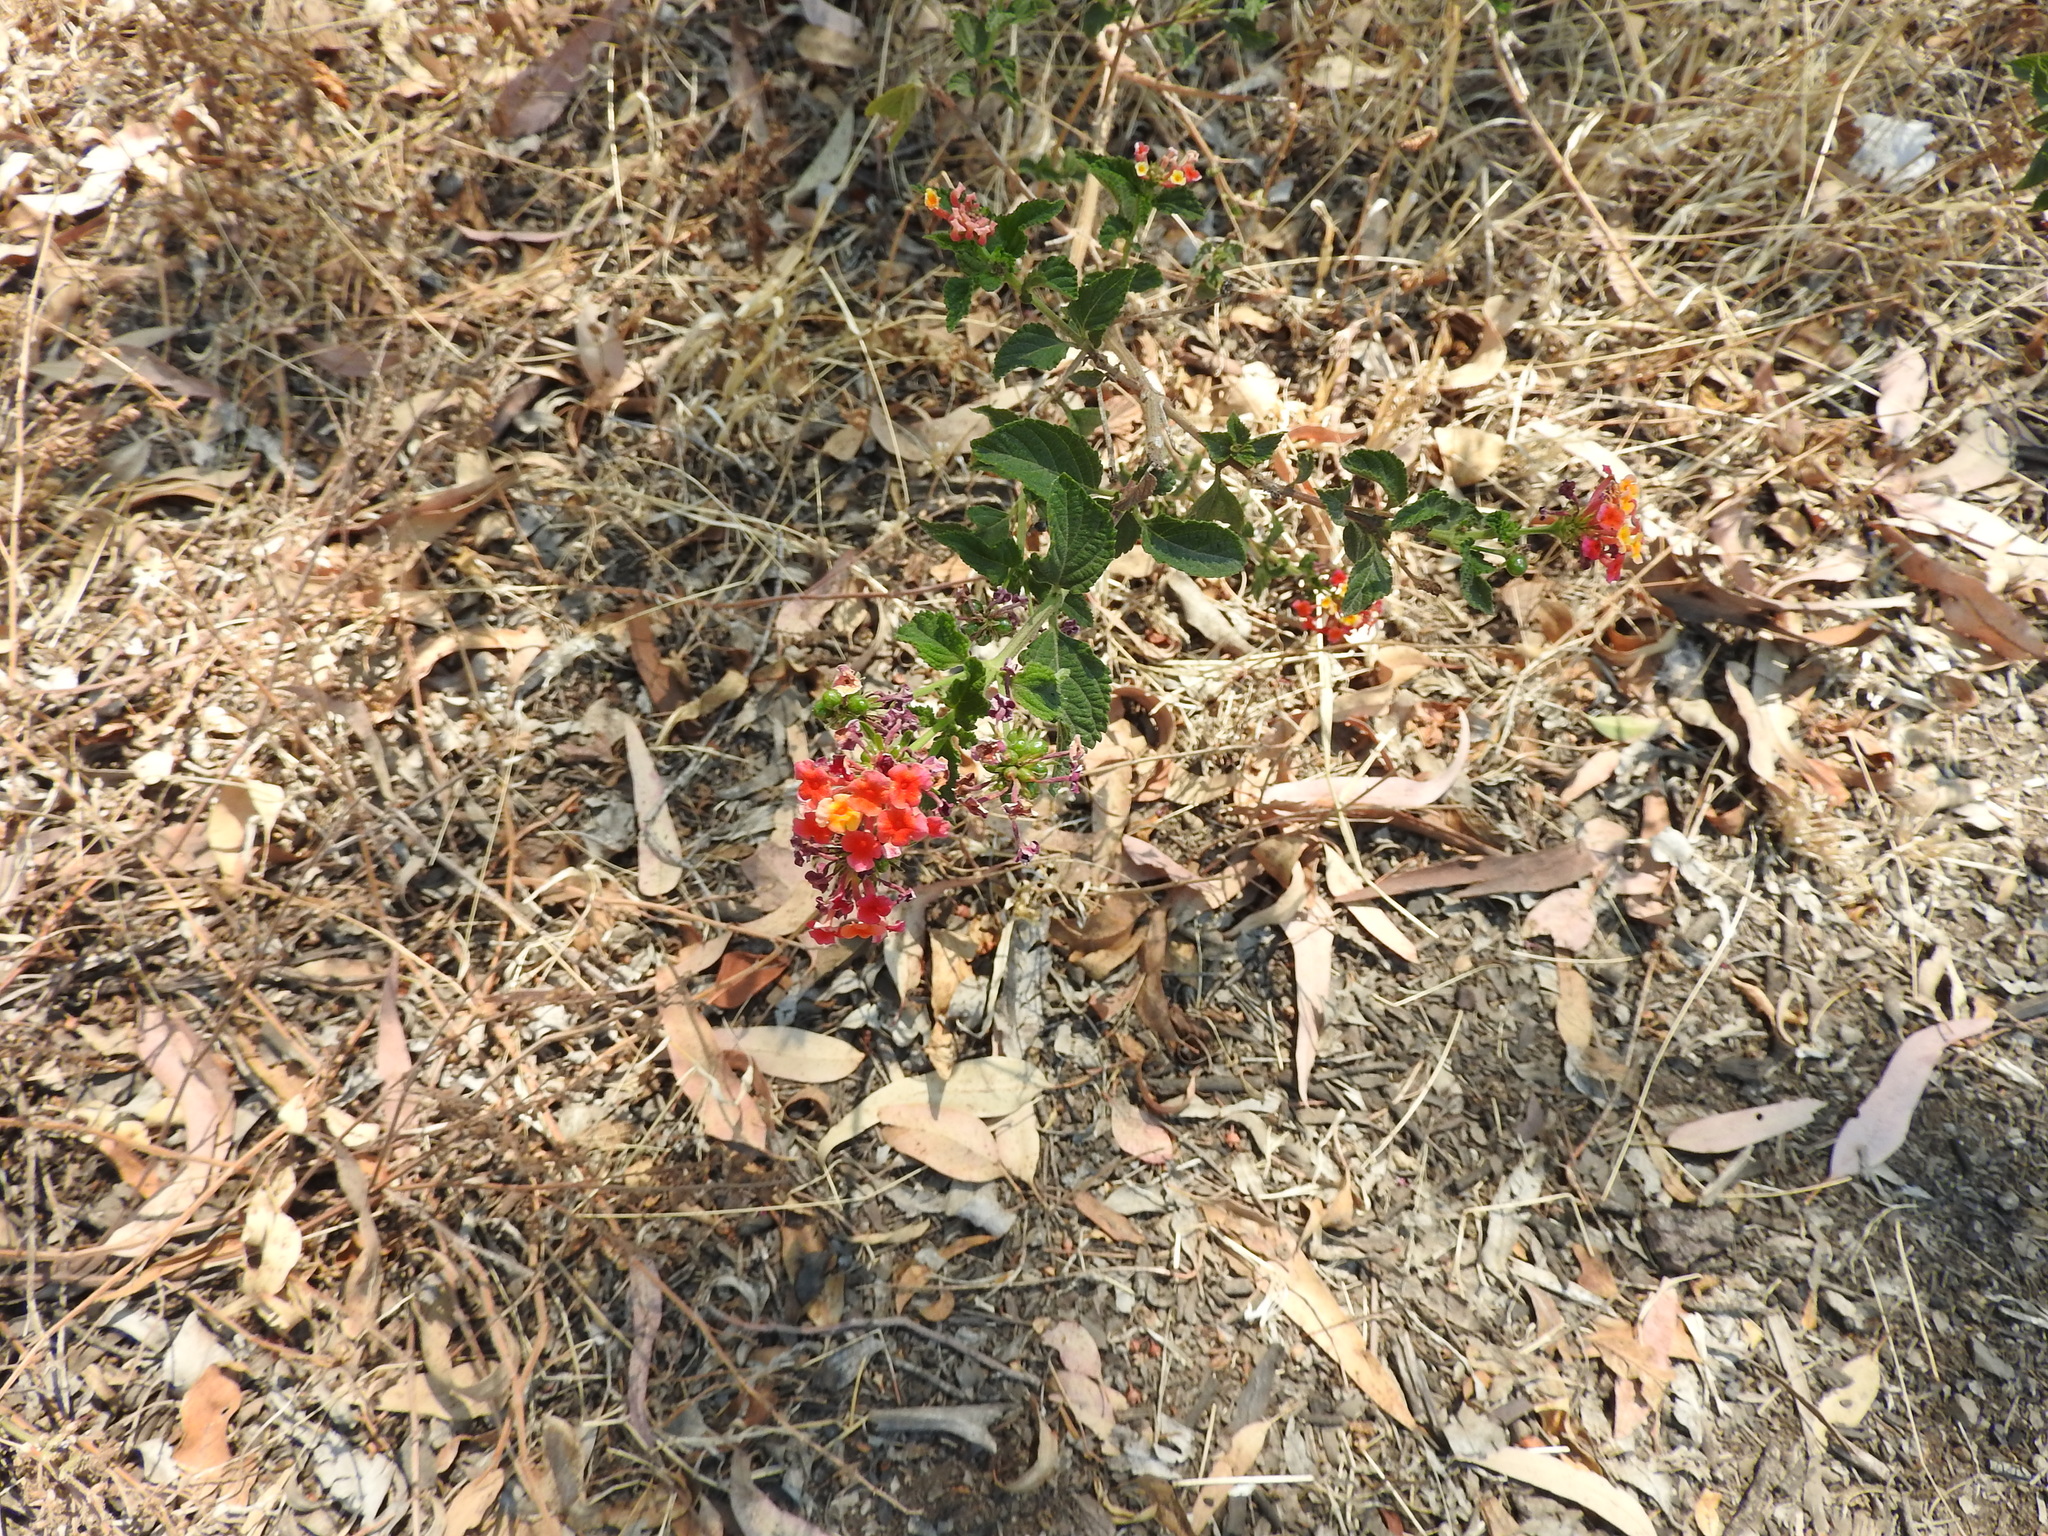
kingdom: Plantae
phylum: Tracheophyta
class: Magnoliopsida
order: Lamiales
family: Verbenaceae
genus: Lantana
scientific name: Lantana camara
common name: Lantana
